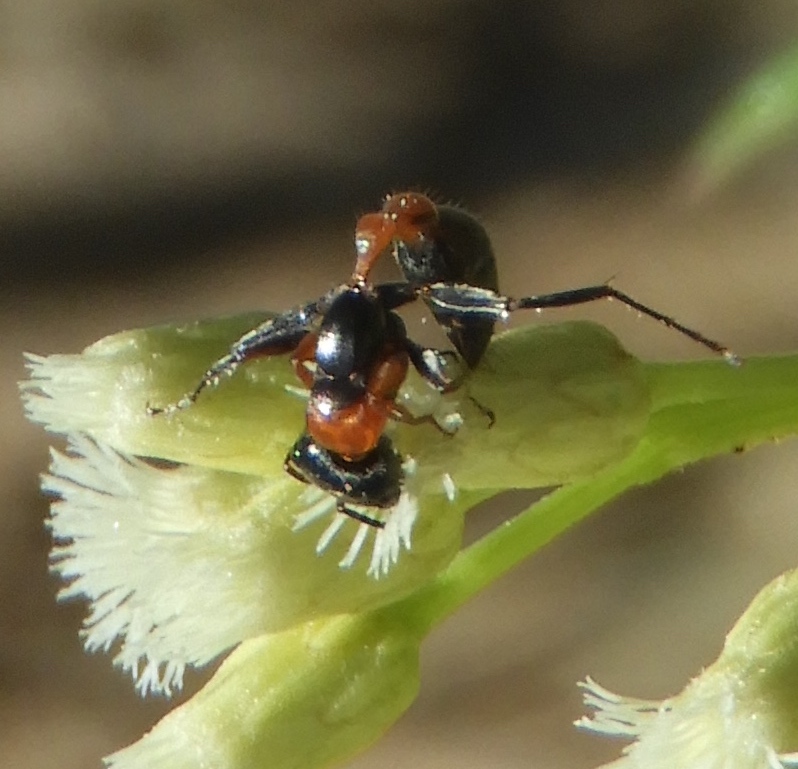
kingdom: Animalia
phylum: Arthropoda
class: Insecta
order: Hymenoptera
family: Formicidae
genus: Pseudomyrmex
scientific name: Pseudomyrmex gracilis
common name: Graceful twig ant
